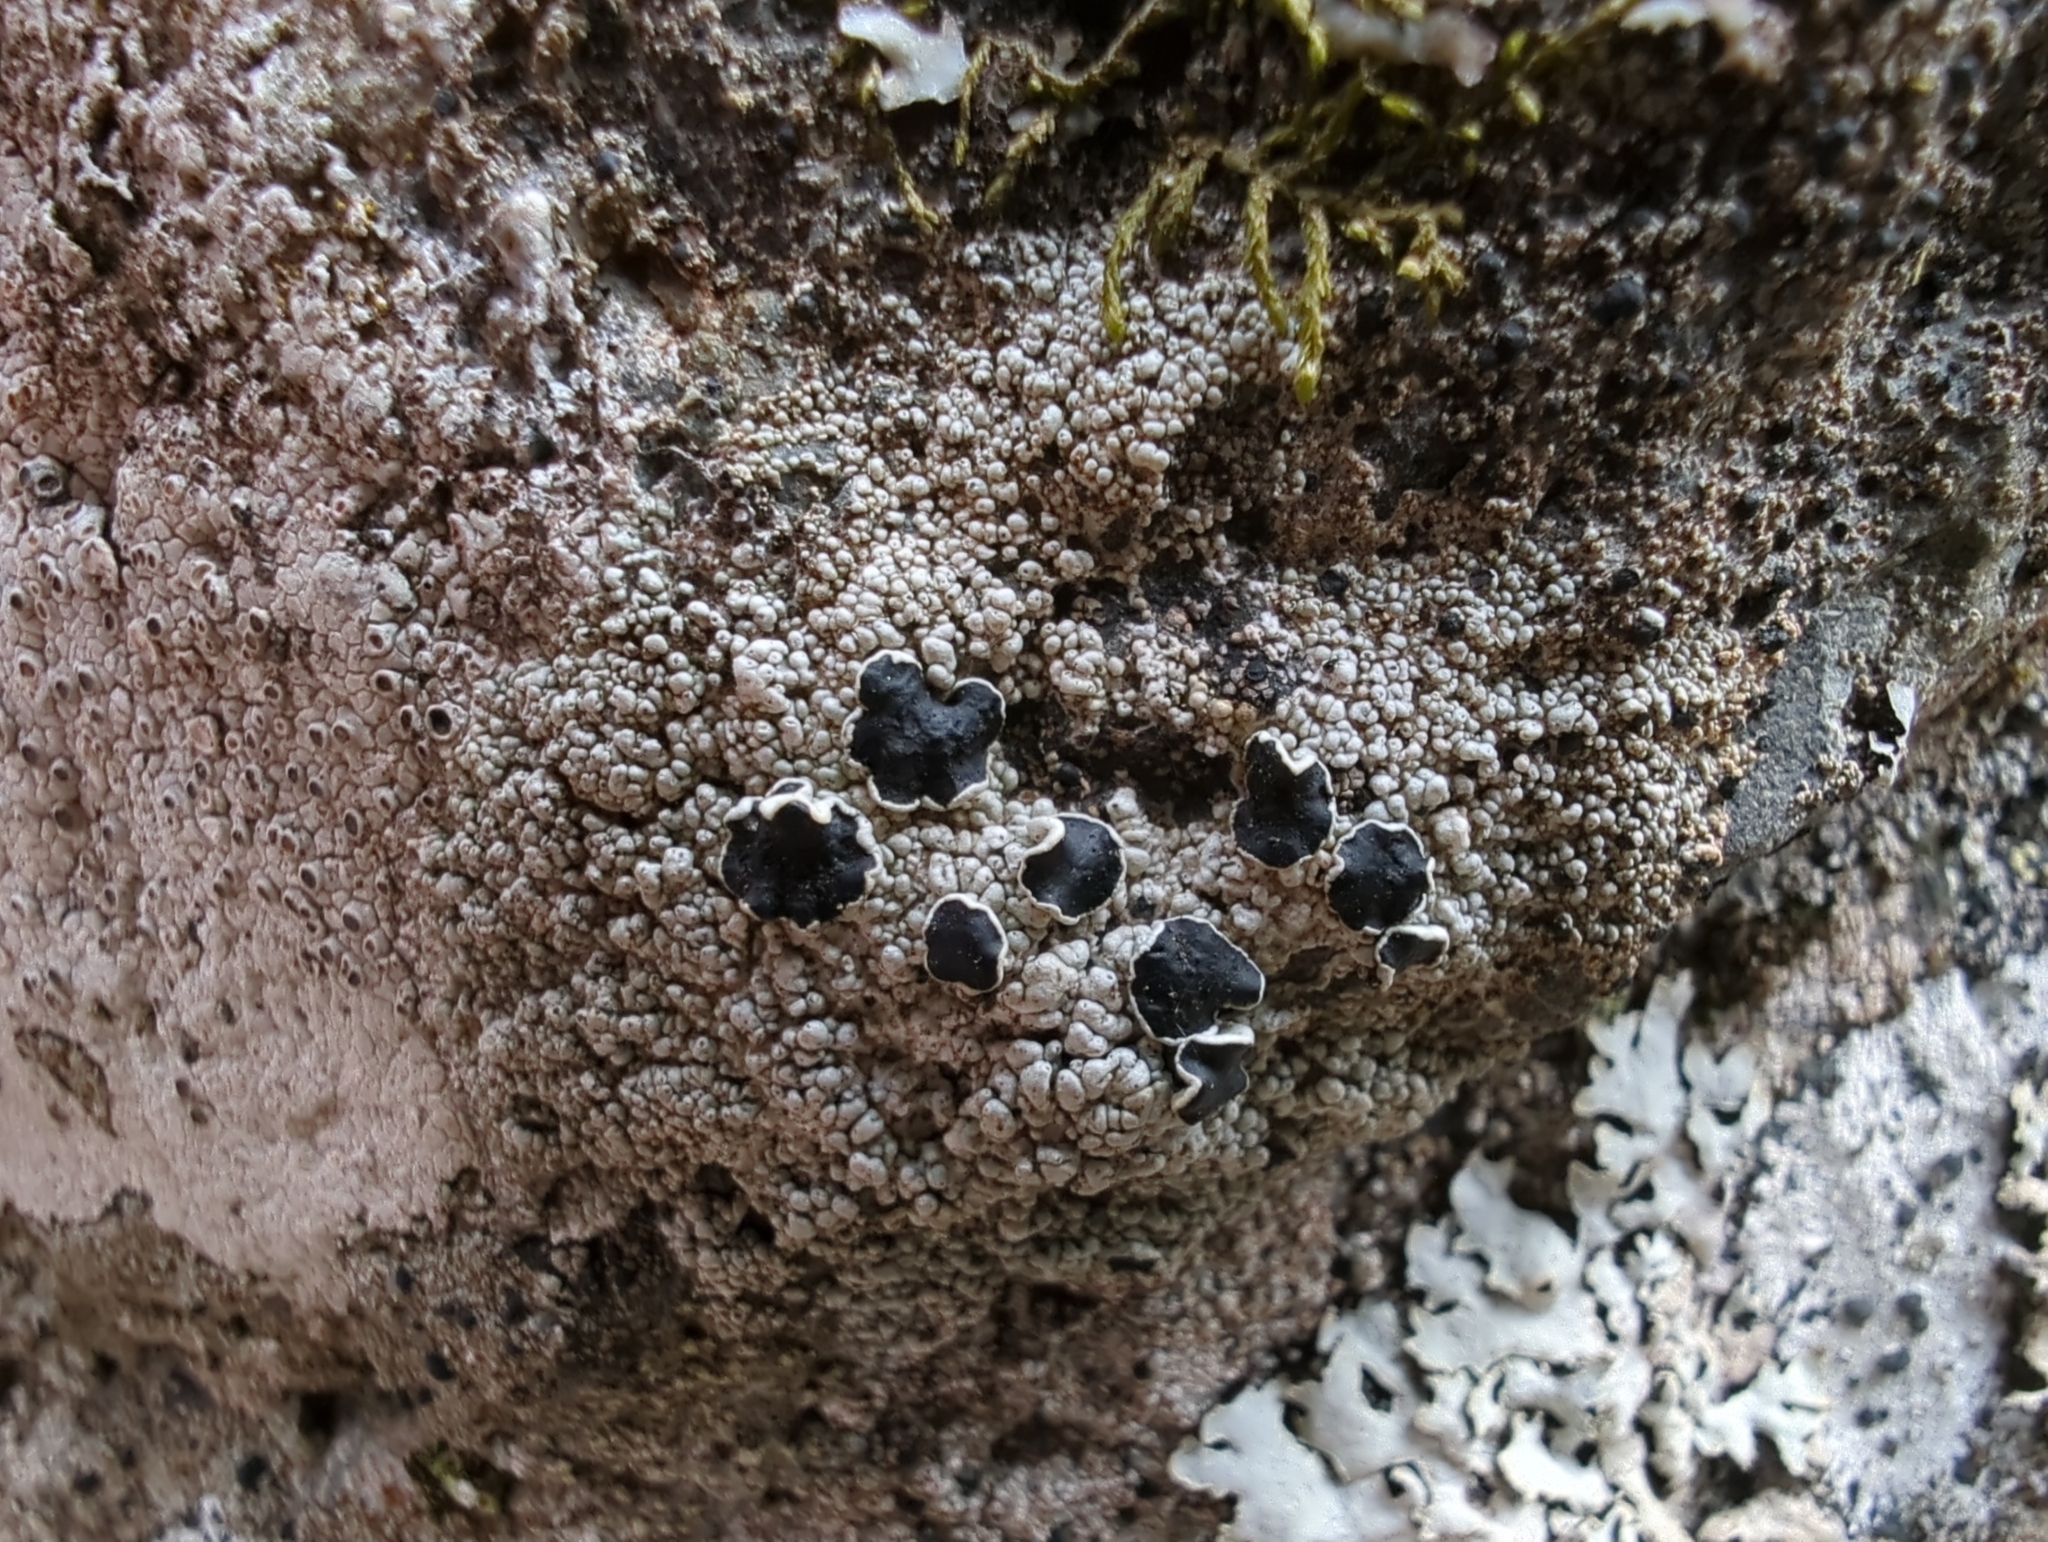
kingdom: Fungi
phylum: Ascomycota
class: Lecanoromycetes
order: Lecanorales
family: Tephromelataceae
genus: Tephromela
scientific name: Tephromela atra
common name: Black shields
